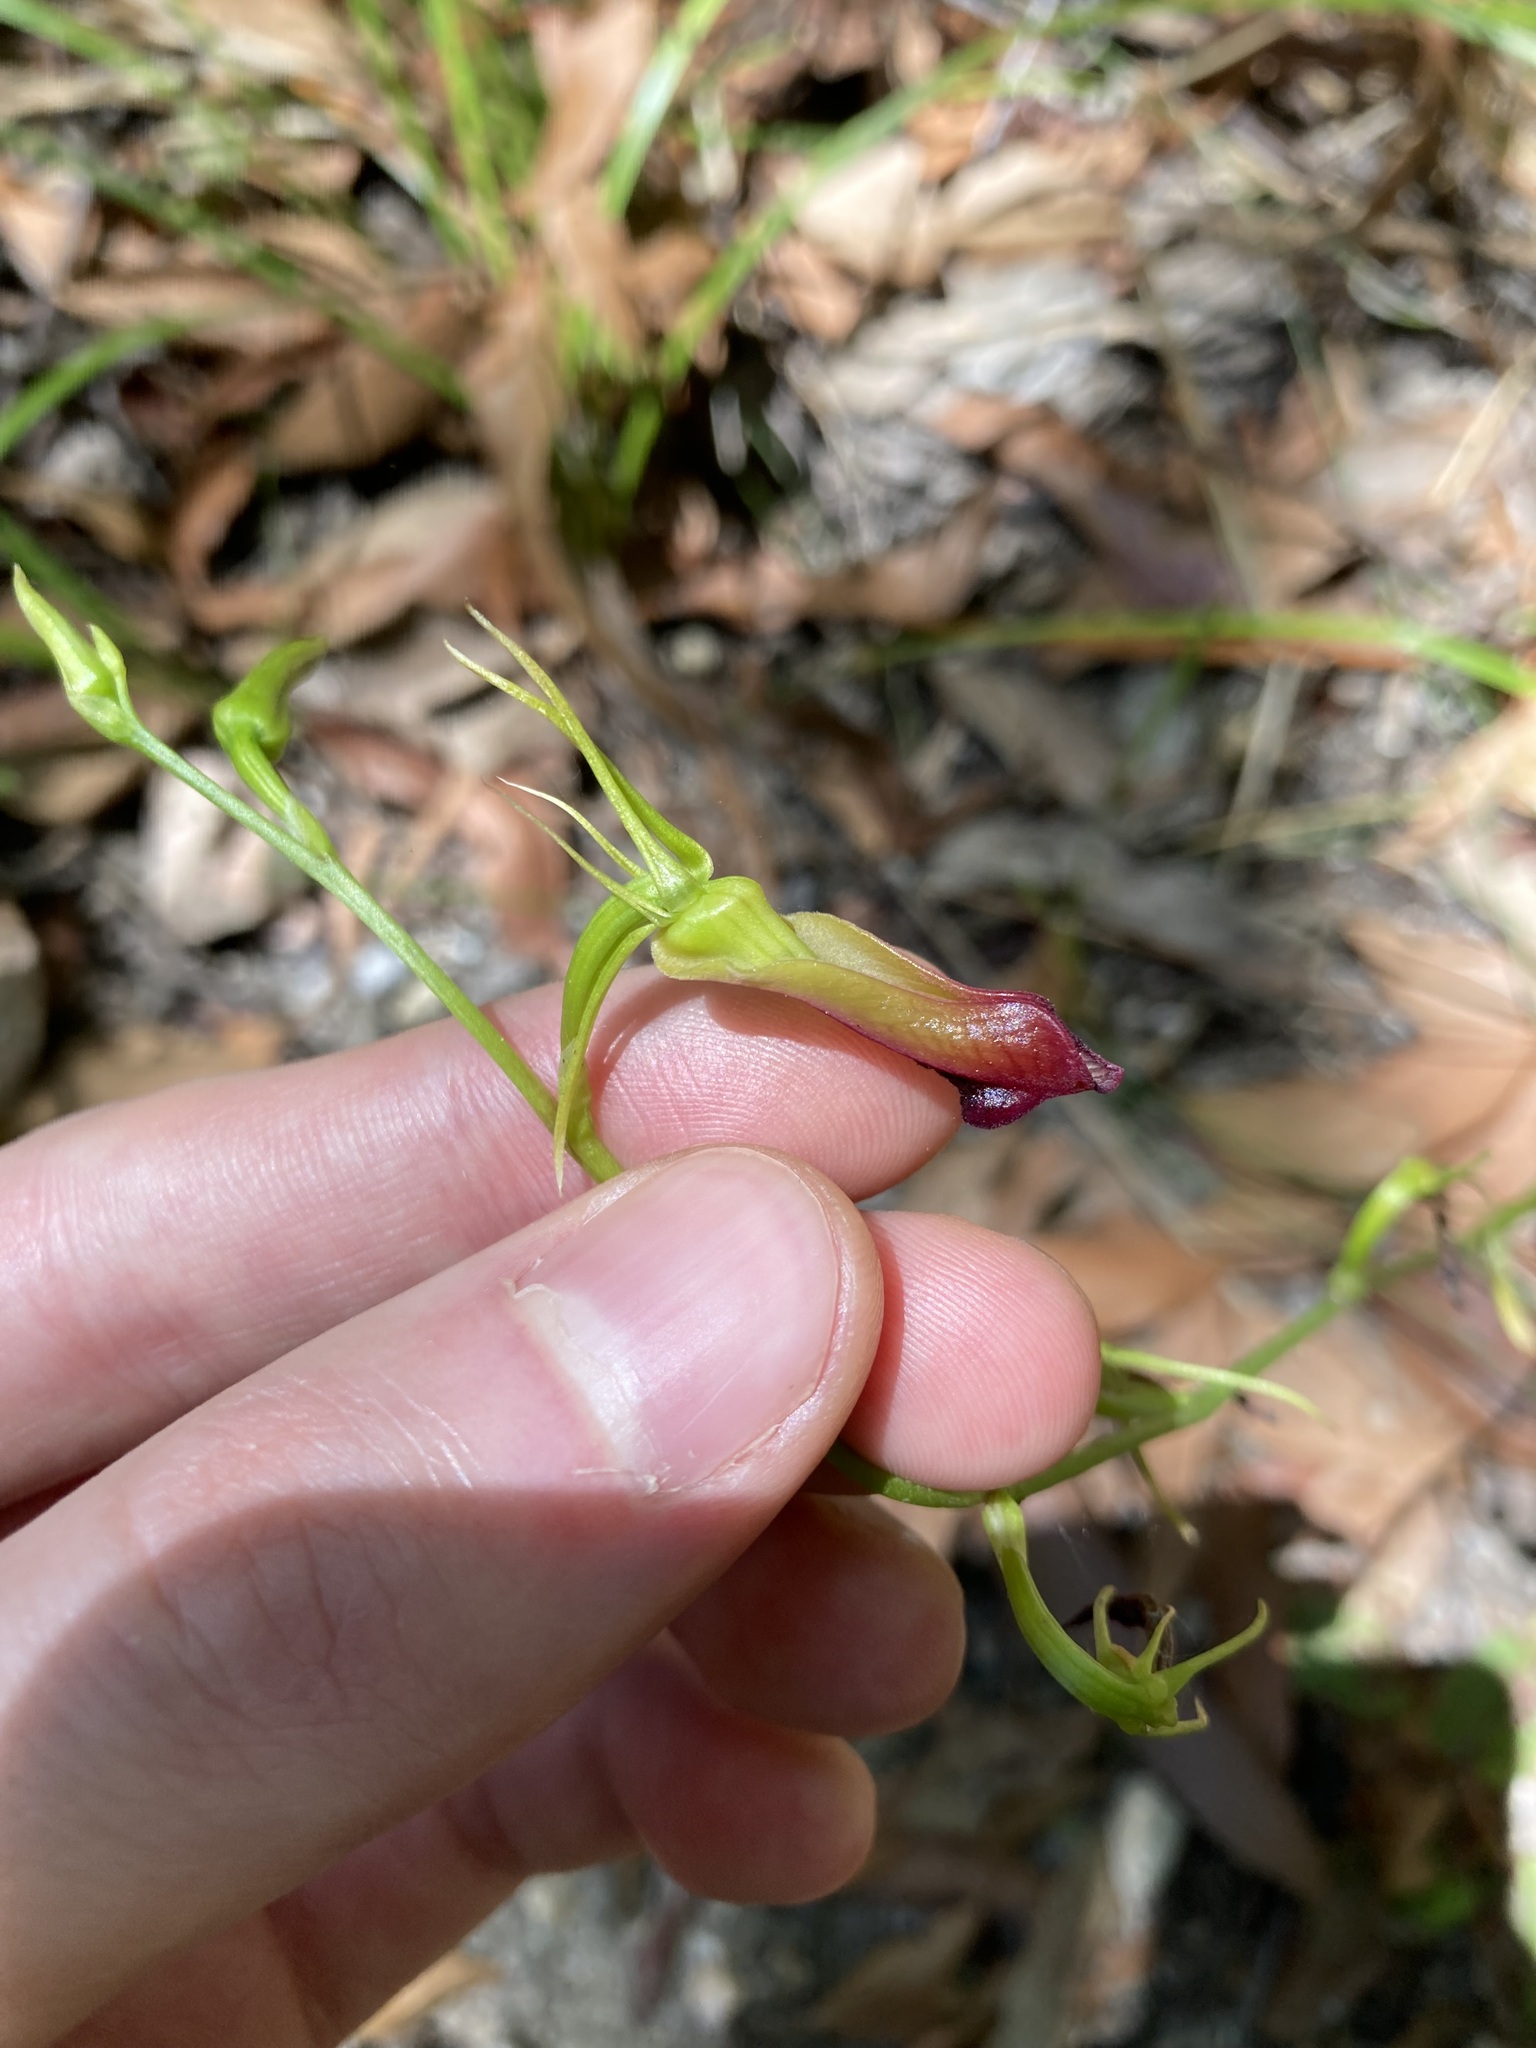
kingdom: Plantae
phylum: Tracheophyta
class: Liliopsida
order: Asparagales
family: Orchidaceae
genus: Cryptostylis
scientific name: Cryptostylis subulata
